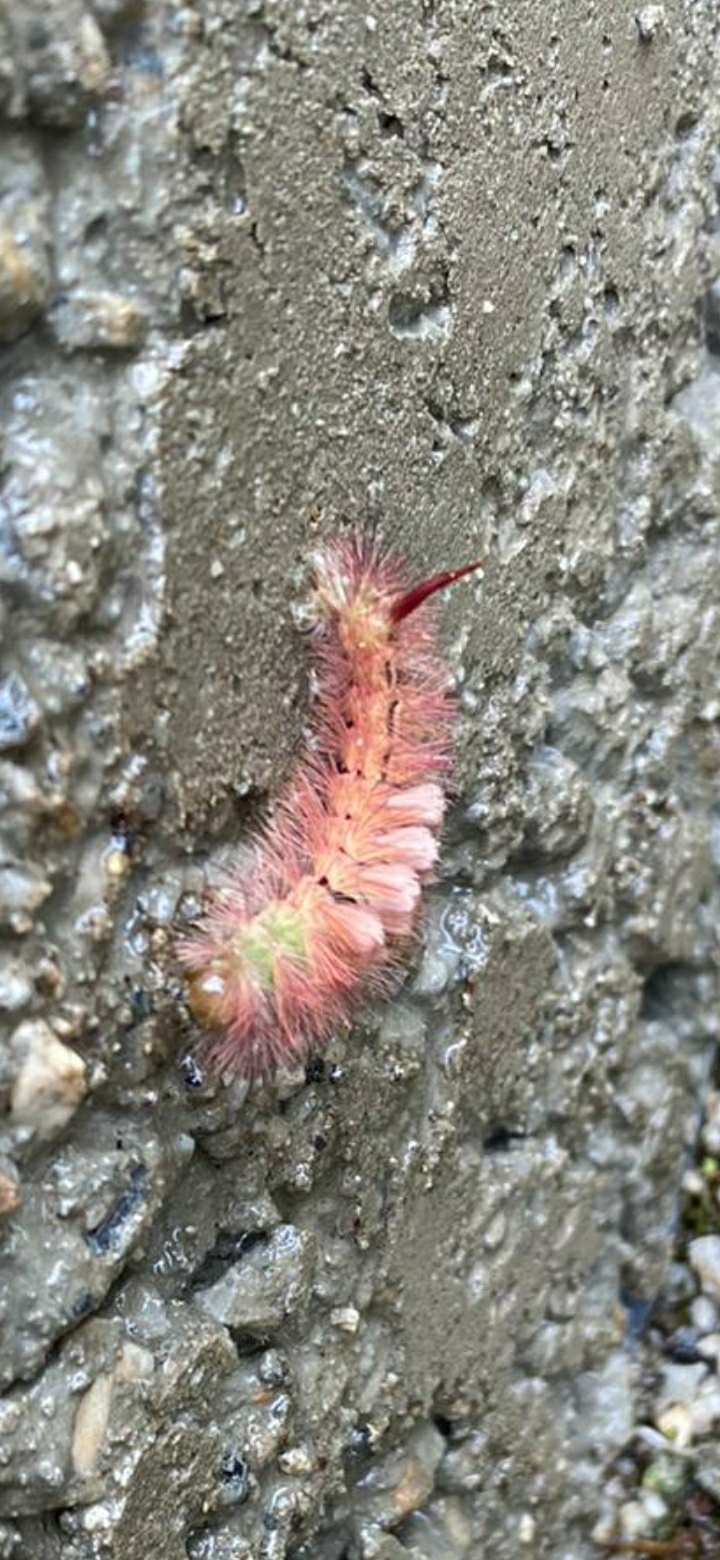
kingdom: Animalia
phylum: Arthropoda
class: Insecta
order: Lepidoptera
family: Erebidae
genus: Calliteara
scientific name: Calliteara pudibunda
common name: Pale tussock
